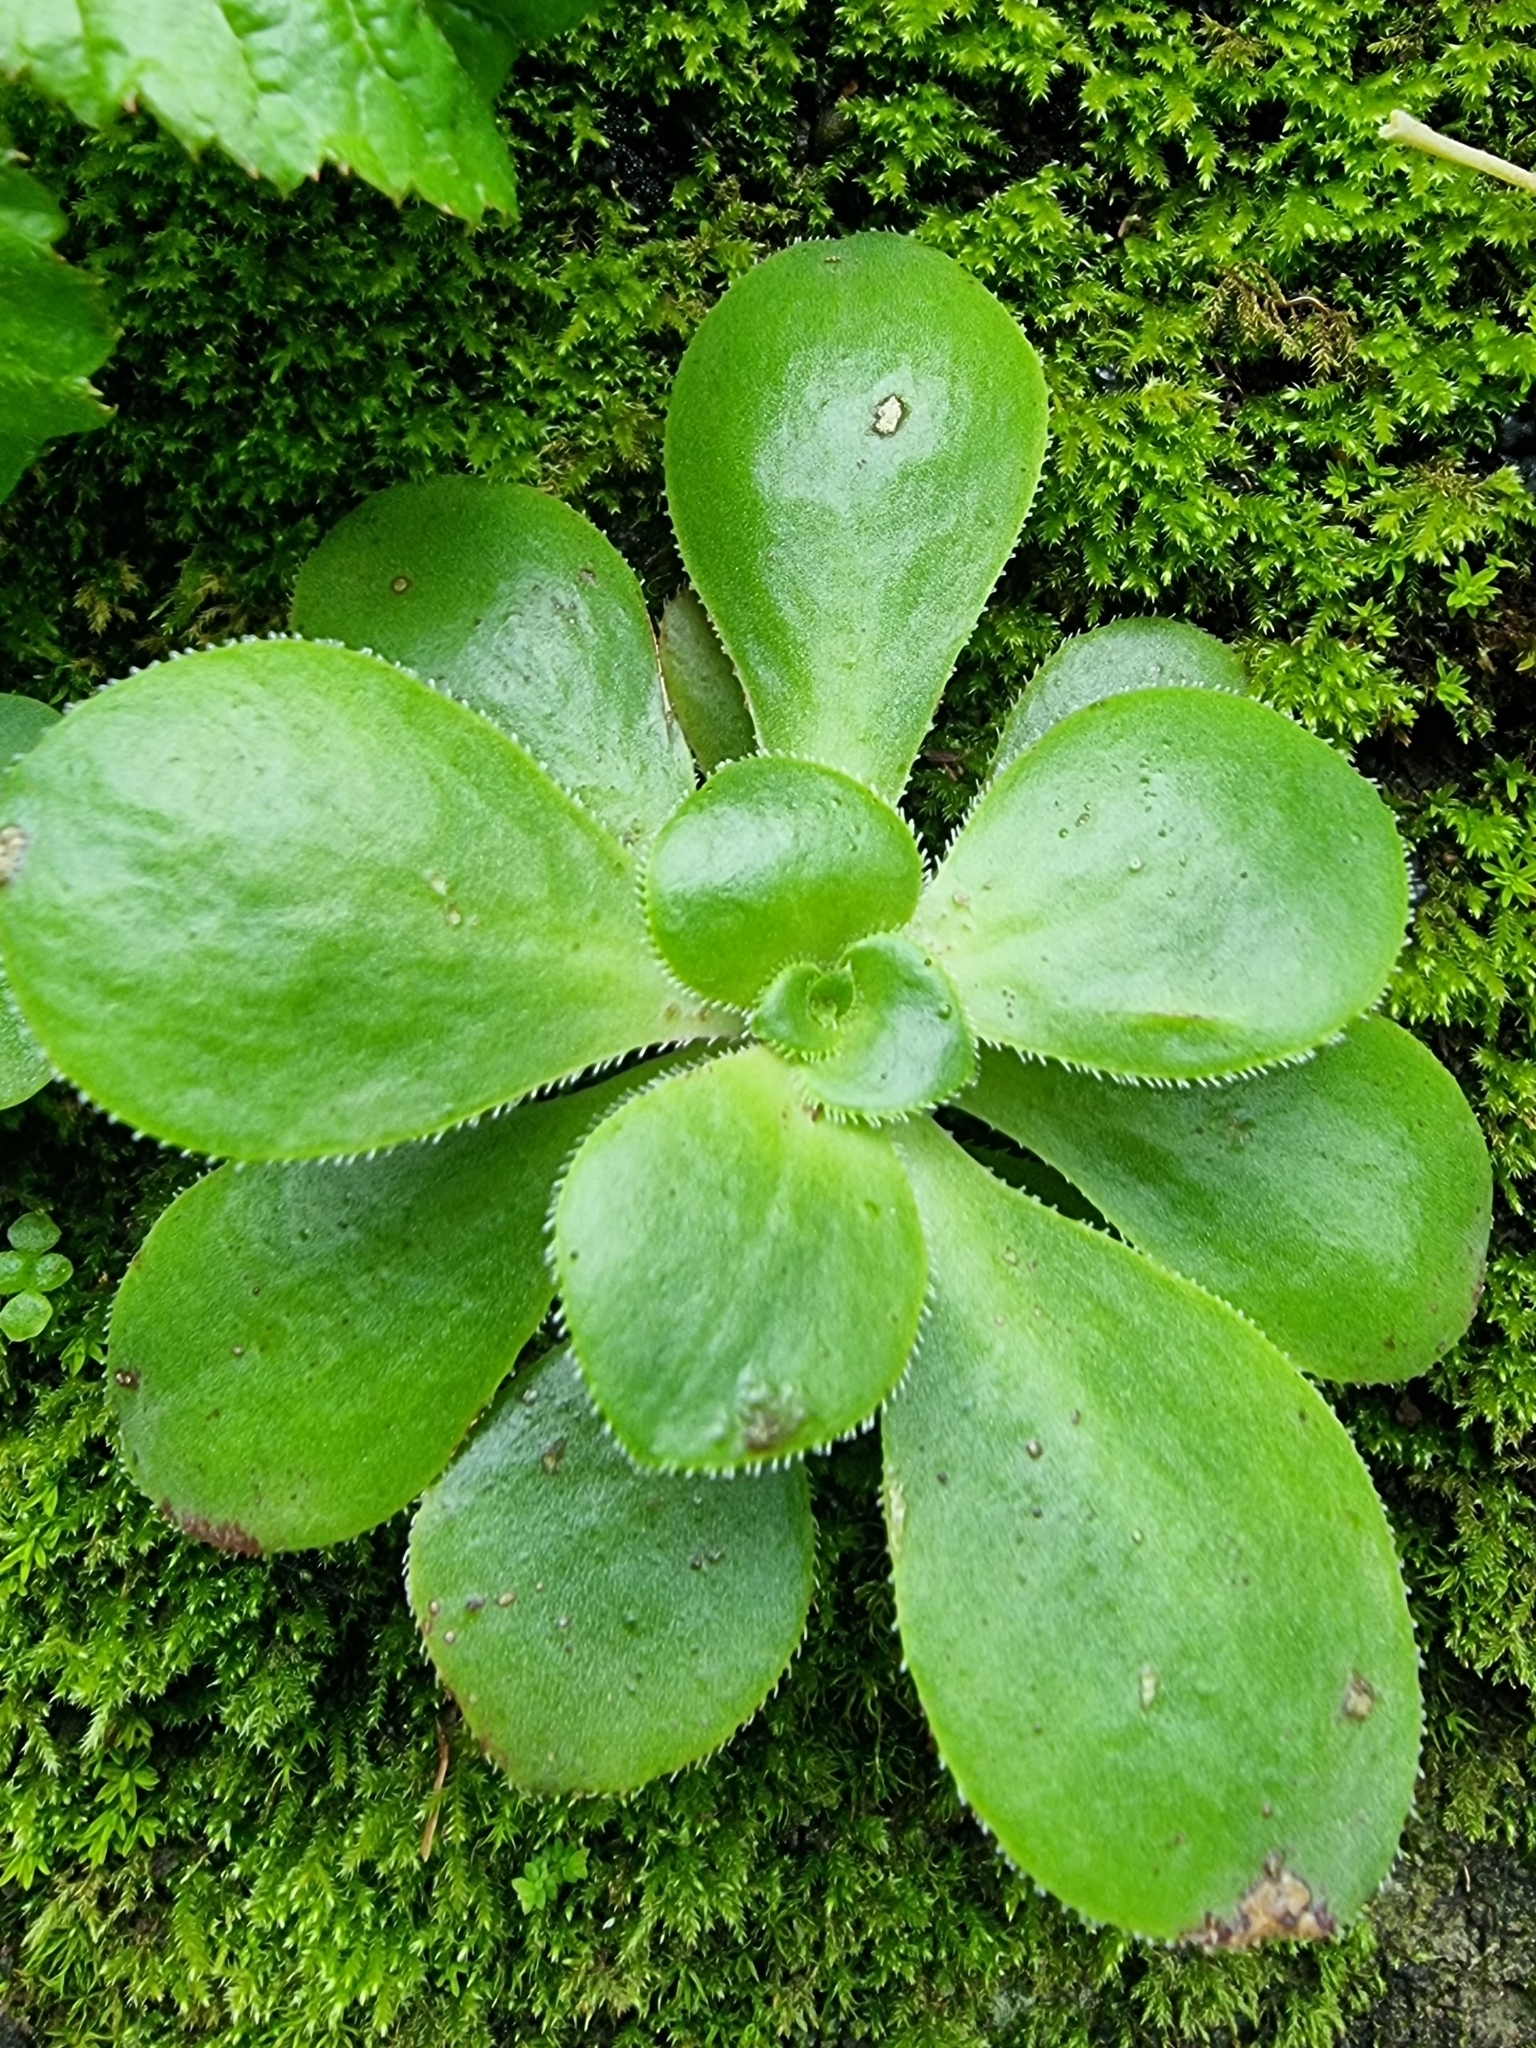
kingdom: Plantae
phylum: Tracheophyta
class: Magnoliopsida
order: Saxifragales
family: Crassulaceae
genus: Aeonium
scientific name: Aeonium glutinosum
